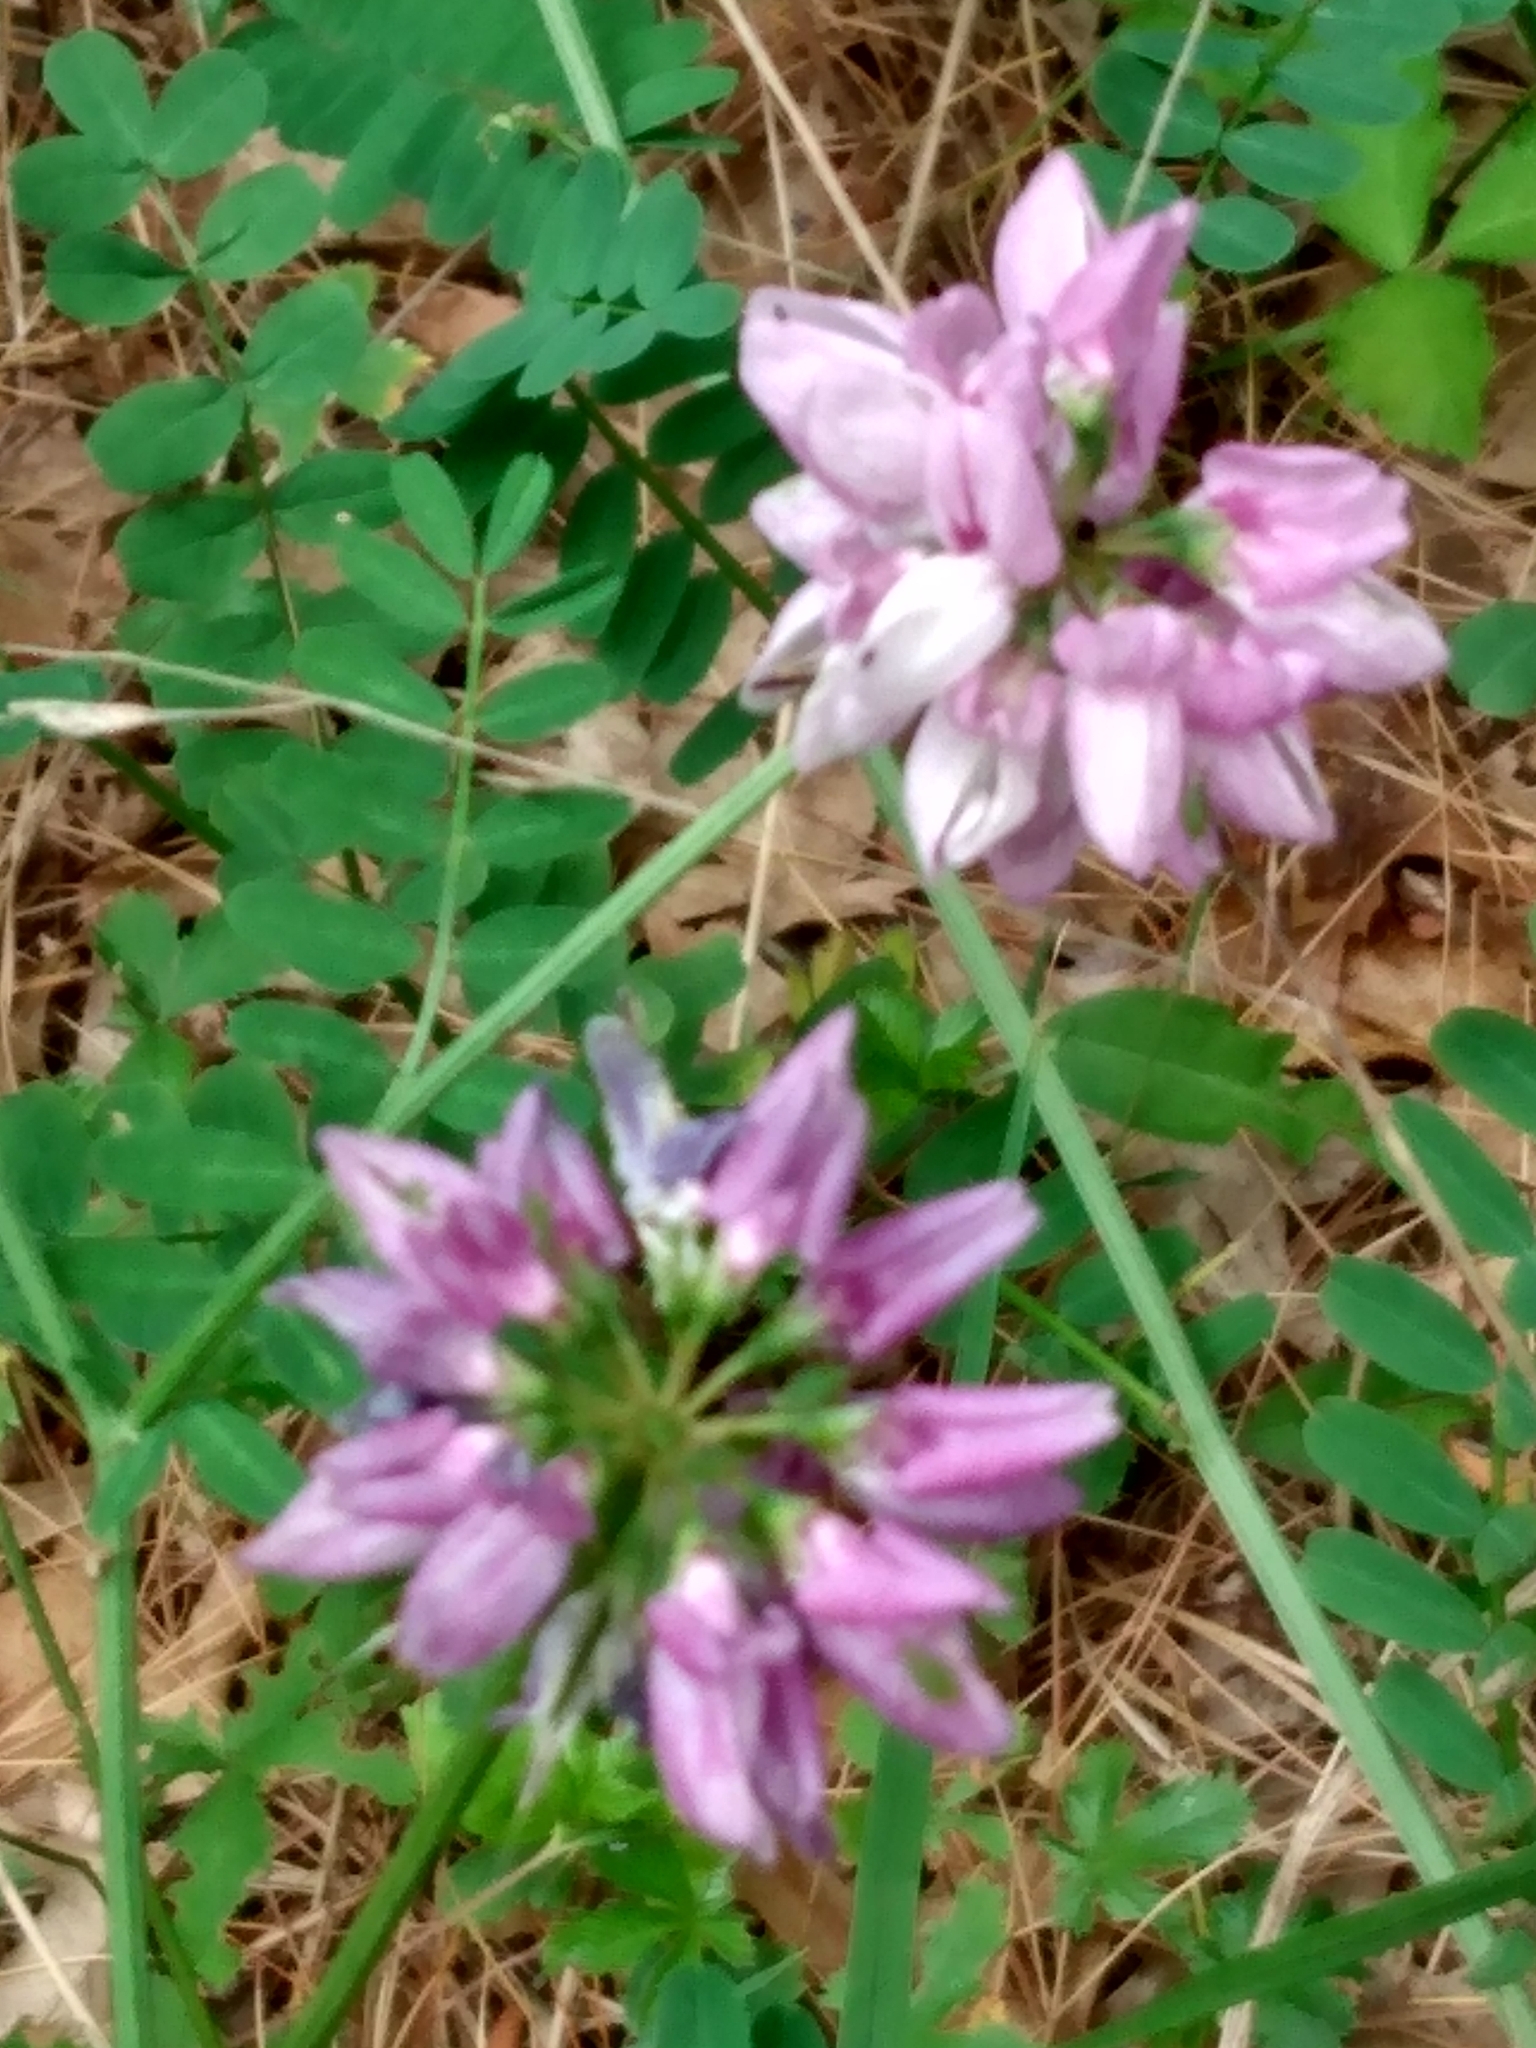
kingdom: Plantae
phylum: Tracheophyta
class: Magnoliopsida
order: Fabales
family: Fabaceae
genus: Coronilla
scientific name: Coronilla varia
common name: Crownvetch
